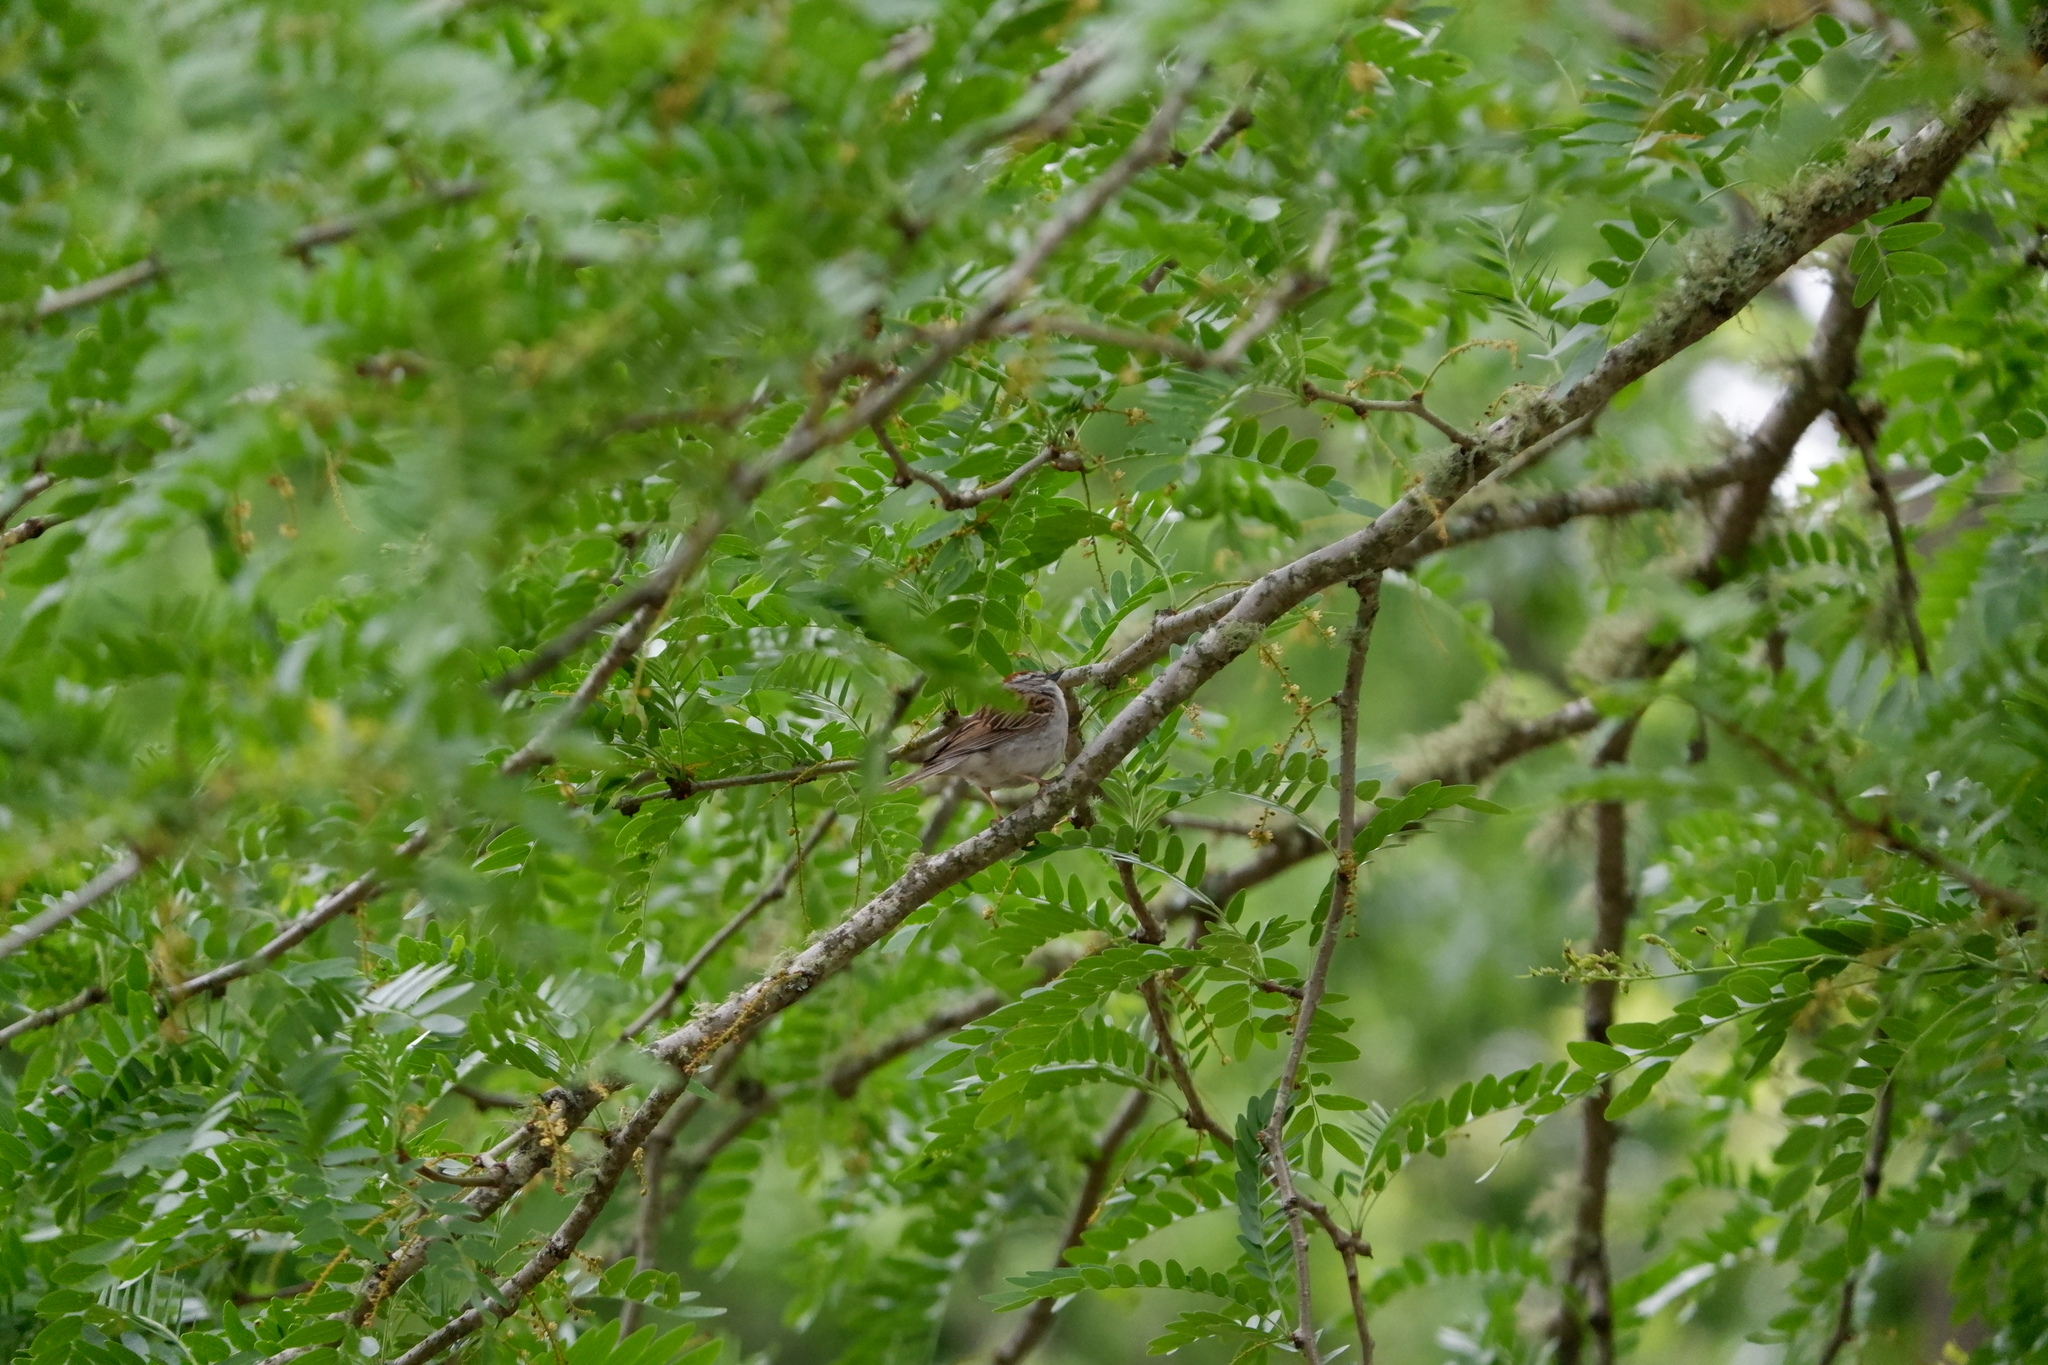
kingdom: Animalia
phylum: Chordata
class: Aves
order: Passeriformes
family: Passerellidae
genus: Spizella
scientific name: Spizella passerina
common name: Chipping sparrow
